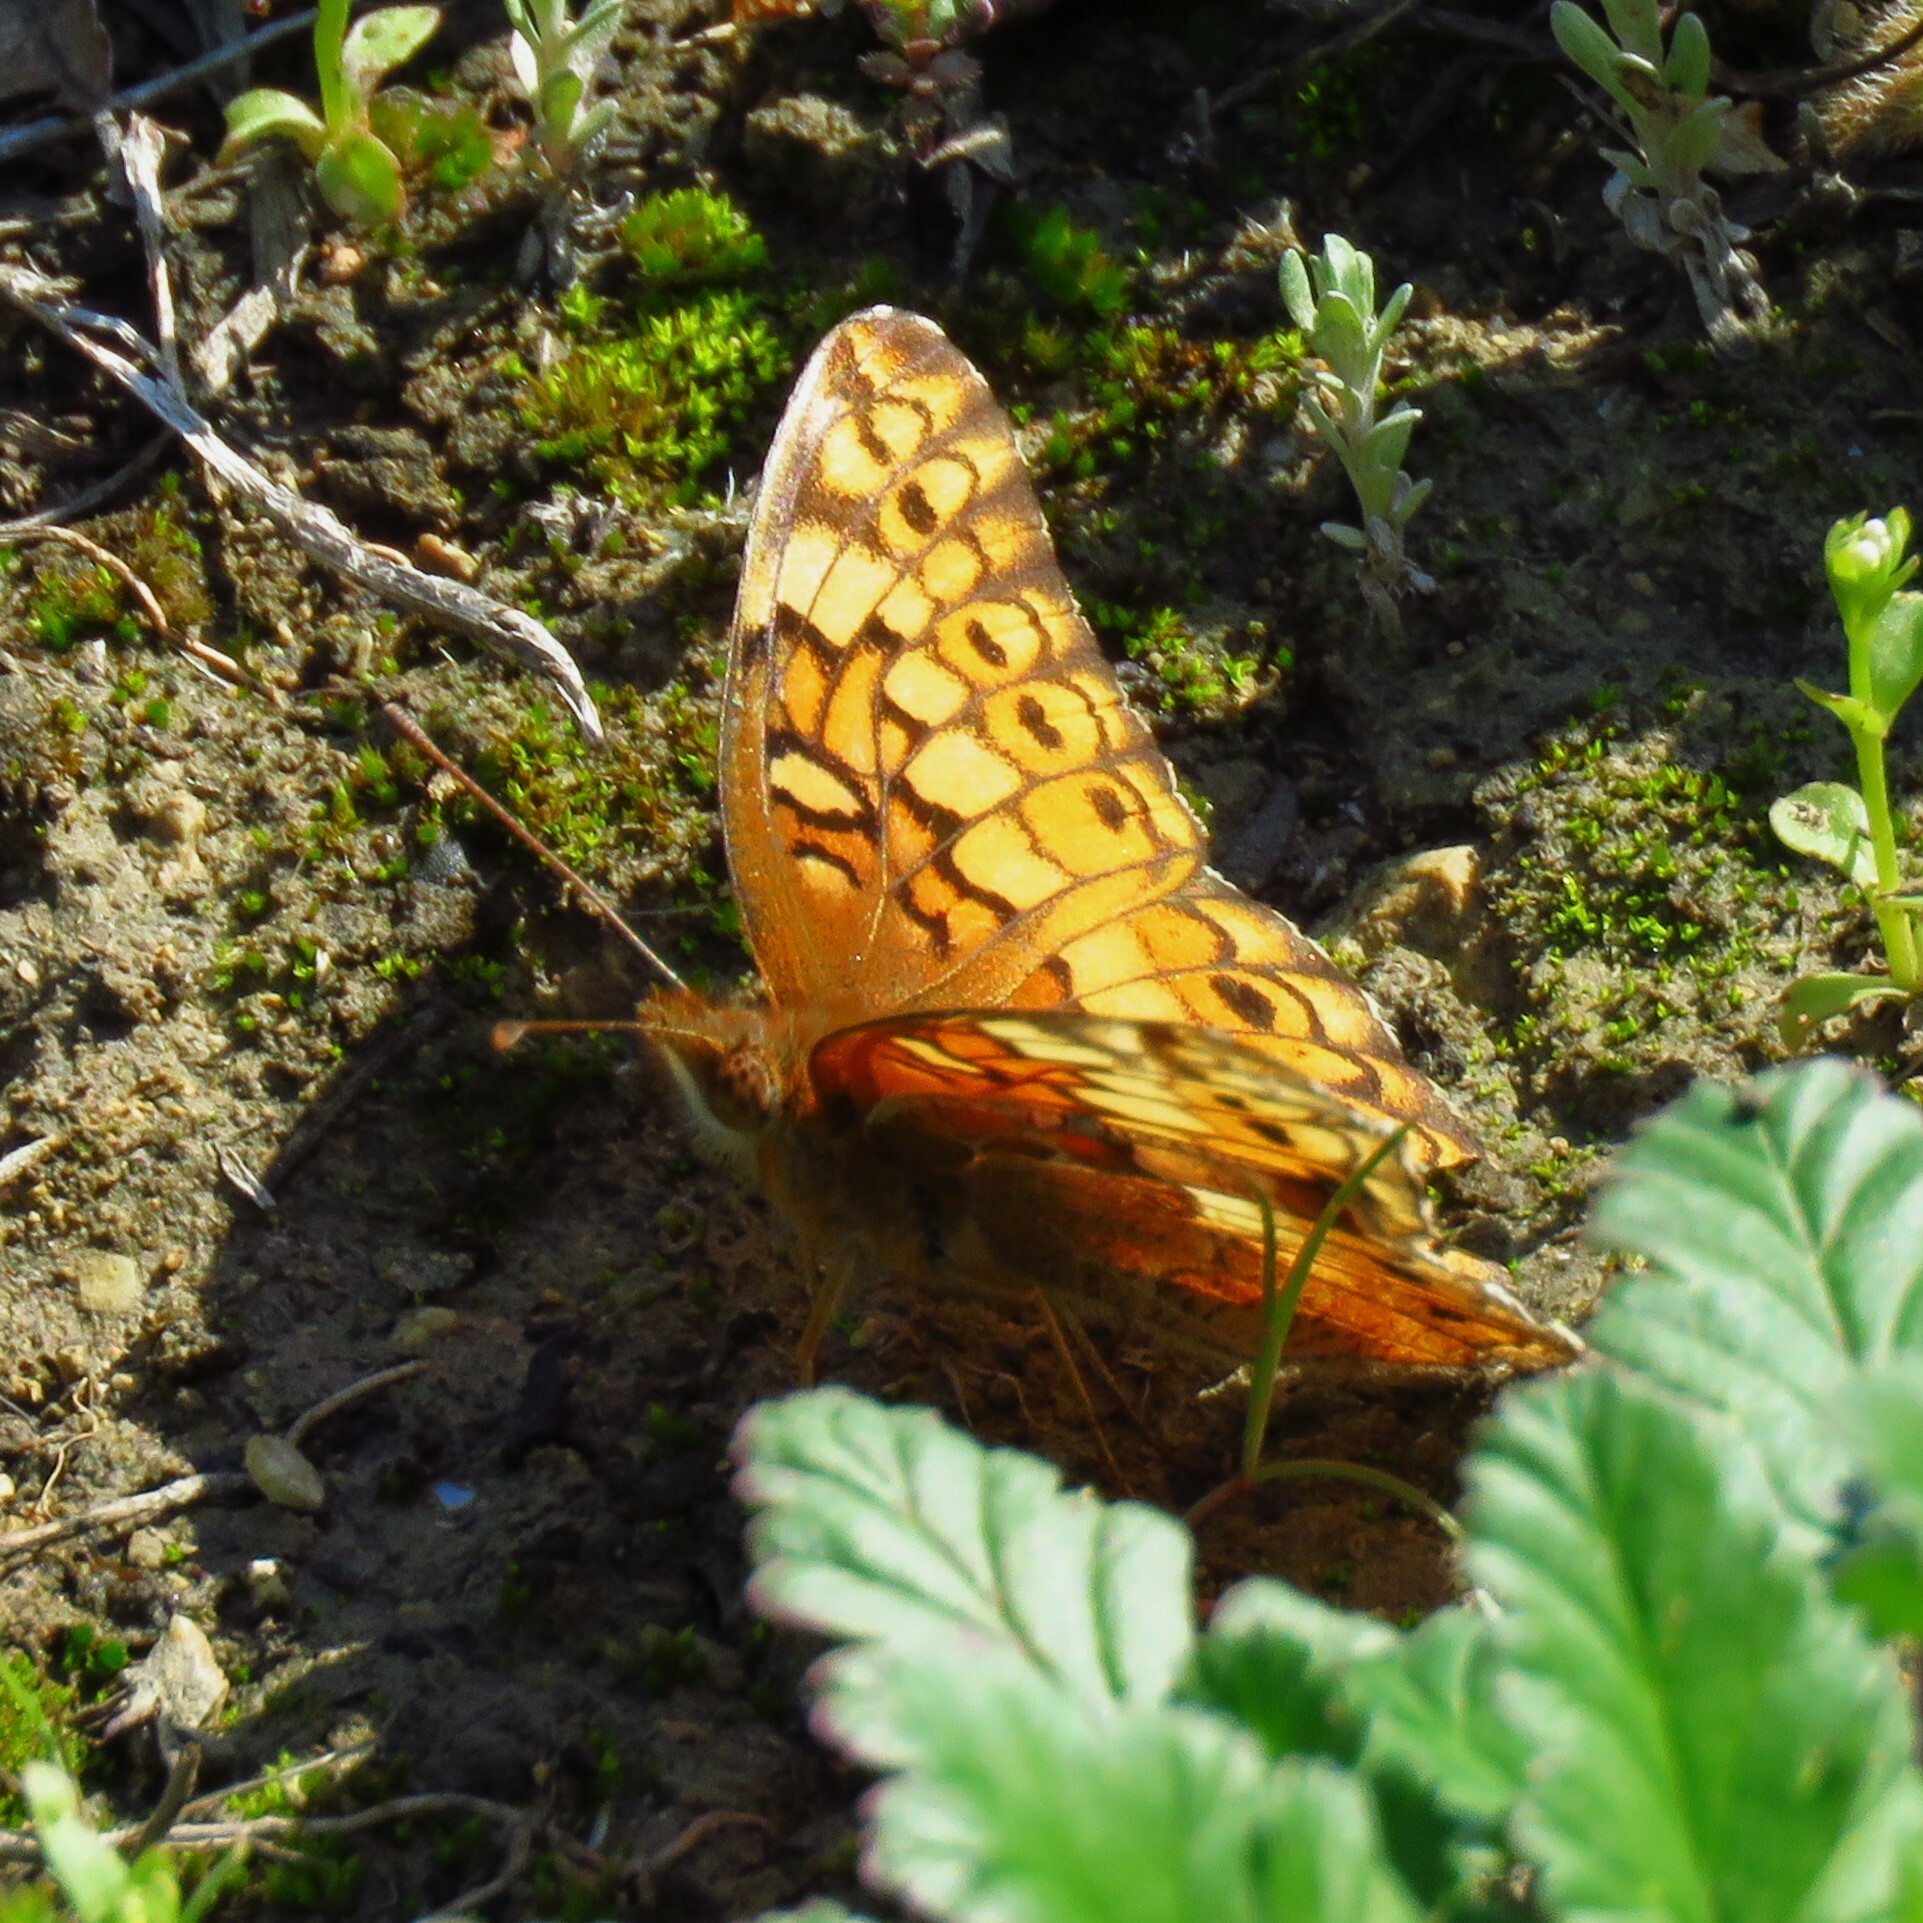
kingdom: Animalia
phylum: Arthropoda
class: Insecta
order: Lepidoptera
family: Nymphalidae
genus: Euptoieta
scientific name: Euptoieta claudia
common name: Variegated fritillary
